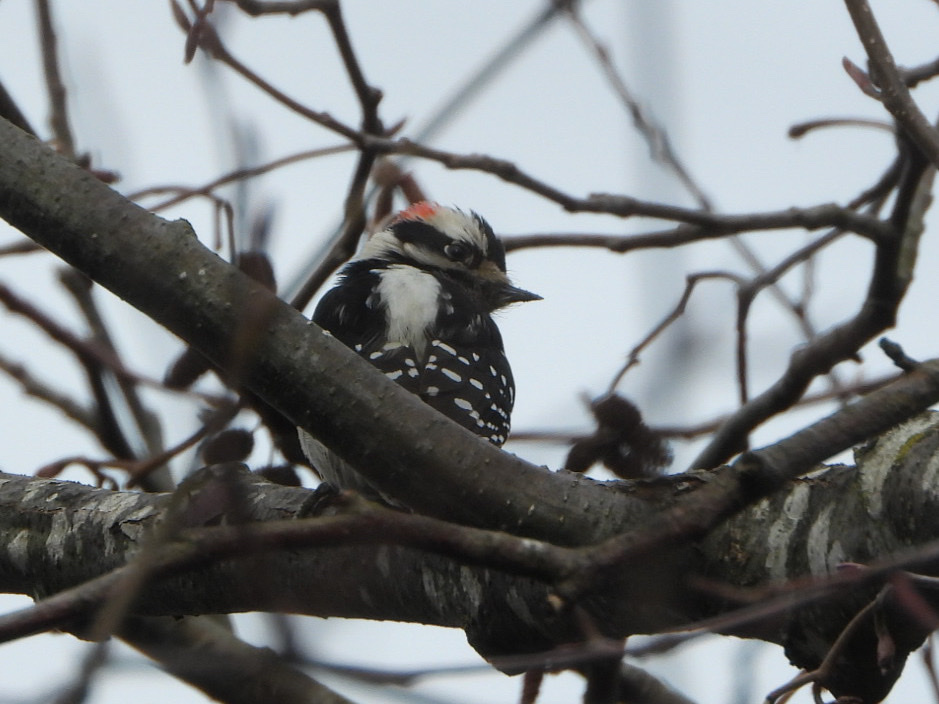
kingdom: Animalia
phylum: Chordata
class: Aves
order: Piciformes
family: Picidae
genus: Dryobates
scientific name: Dryobates pubescens
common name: Downy woodpecker
